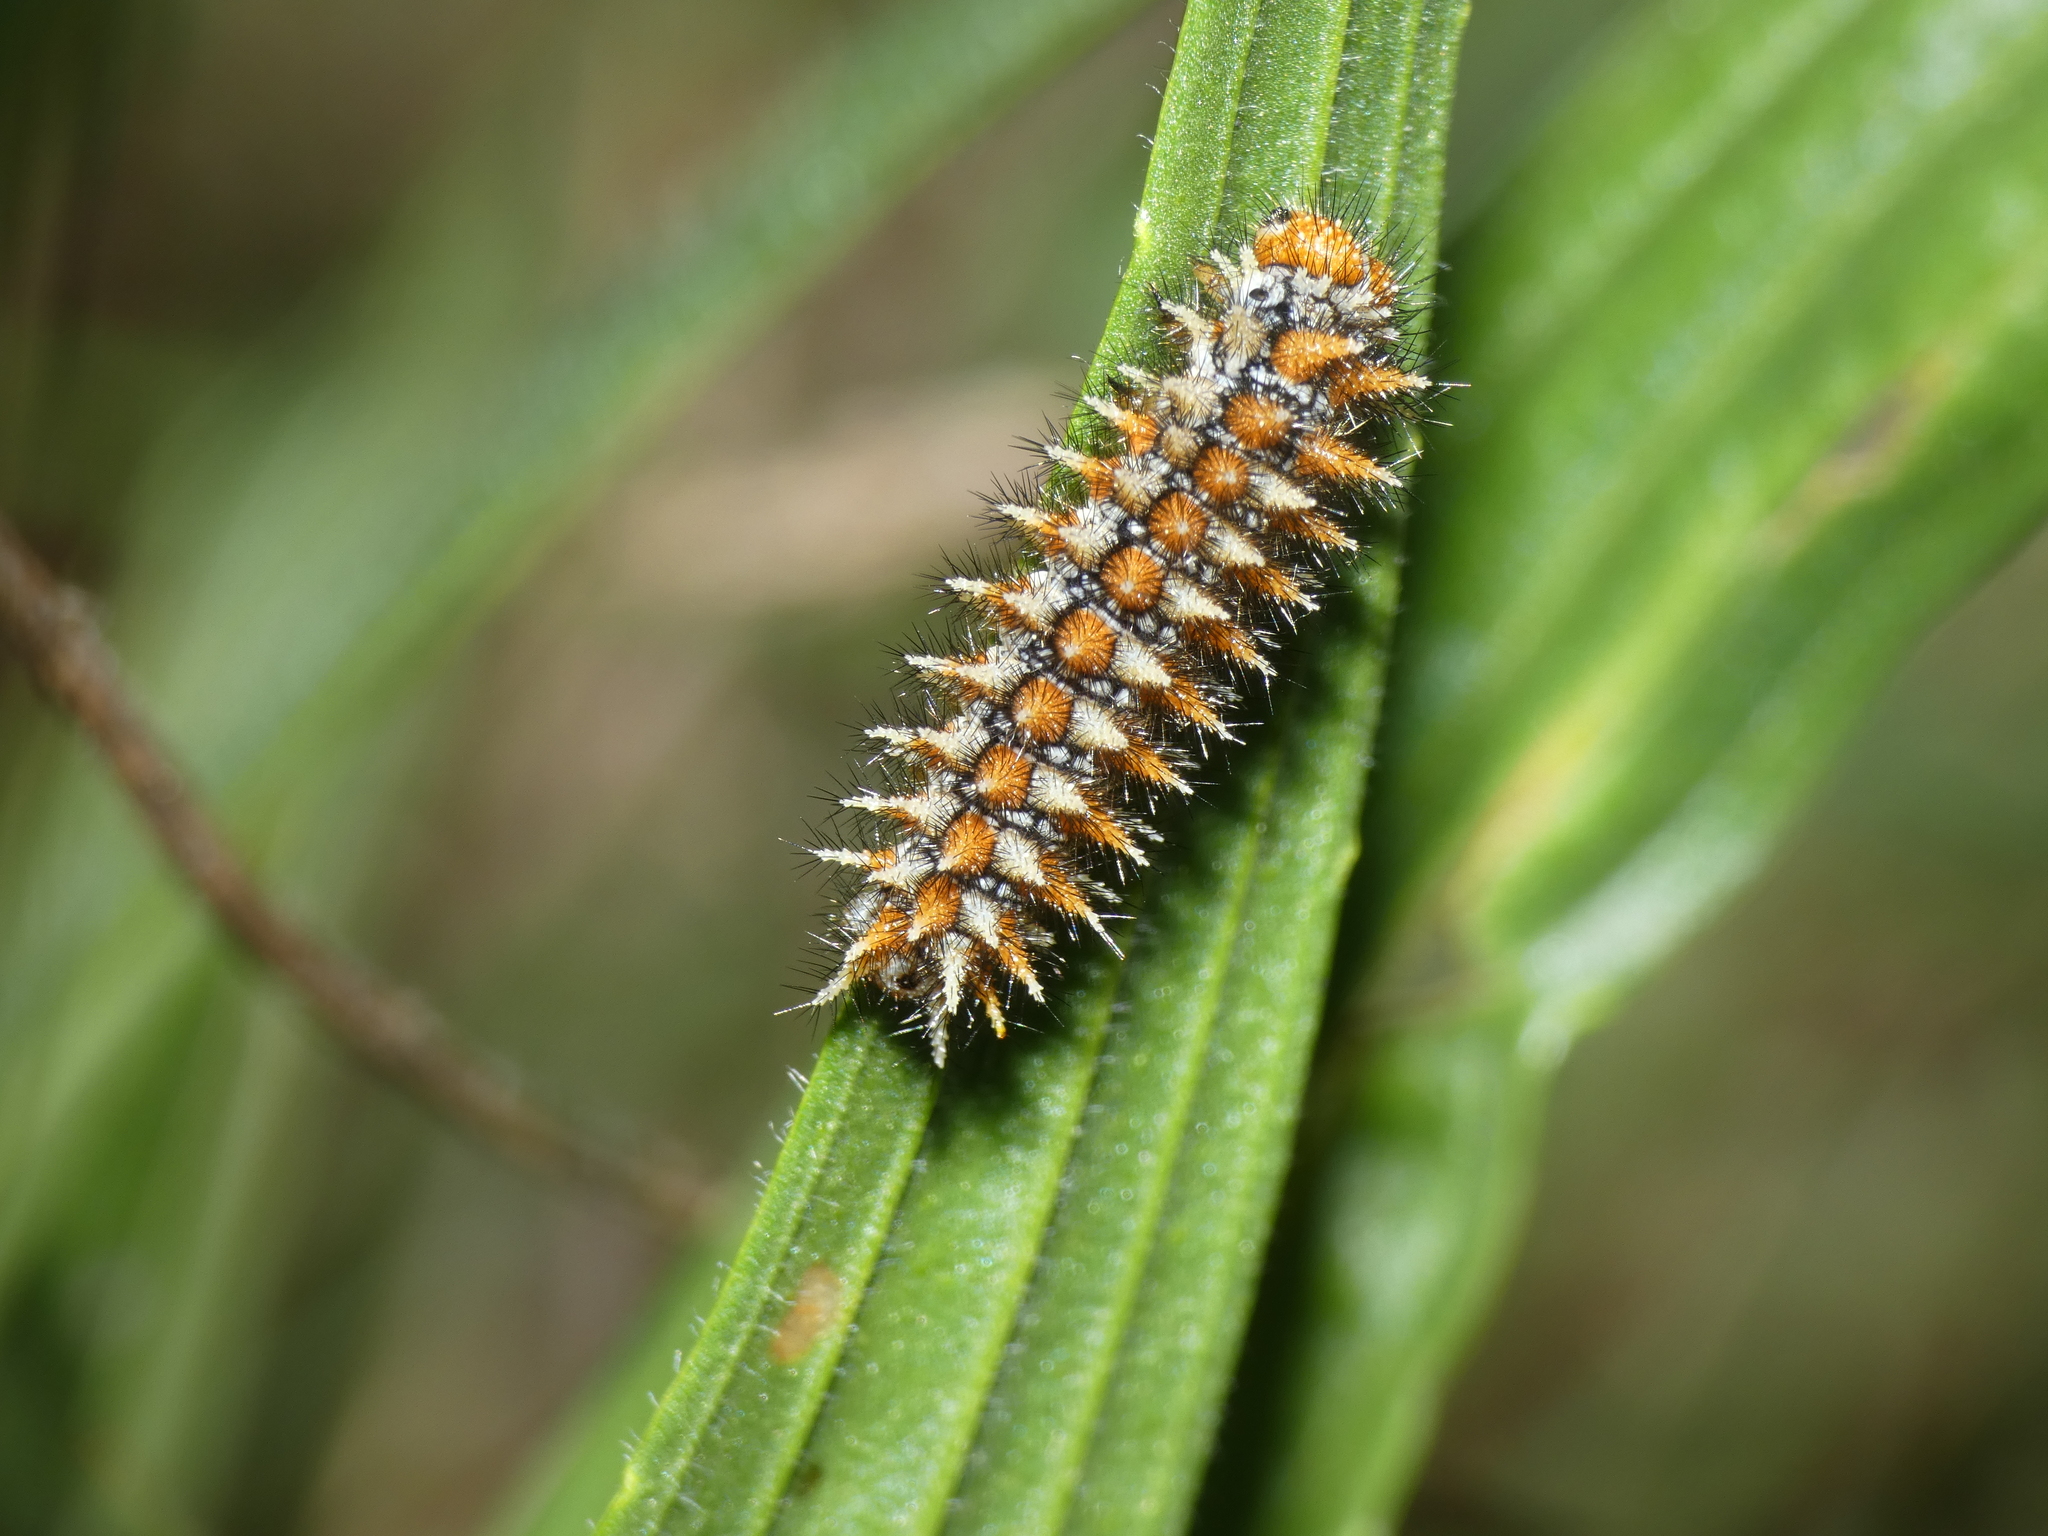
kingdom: Animalia
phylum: Arthropoda
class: Insecta
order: Lepidoptera
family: Nymphalidae
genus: Melitaea
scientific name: Melitaea didyma
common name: Spotted fritillary
